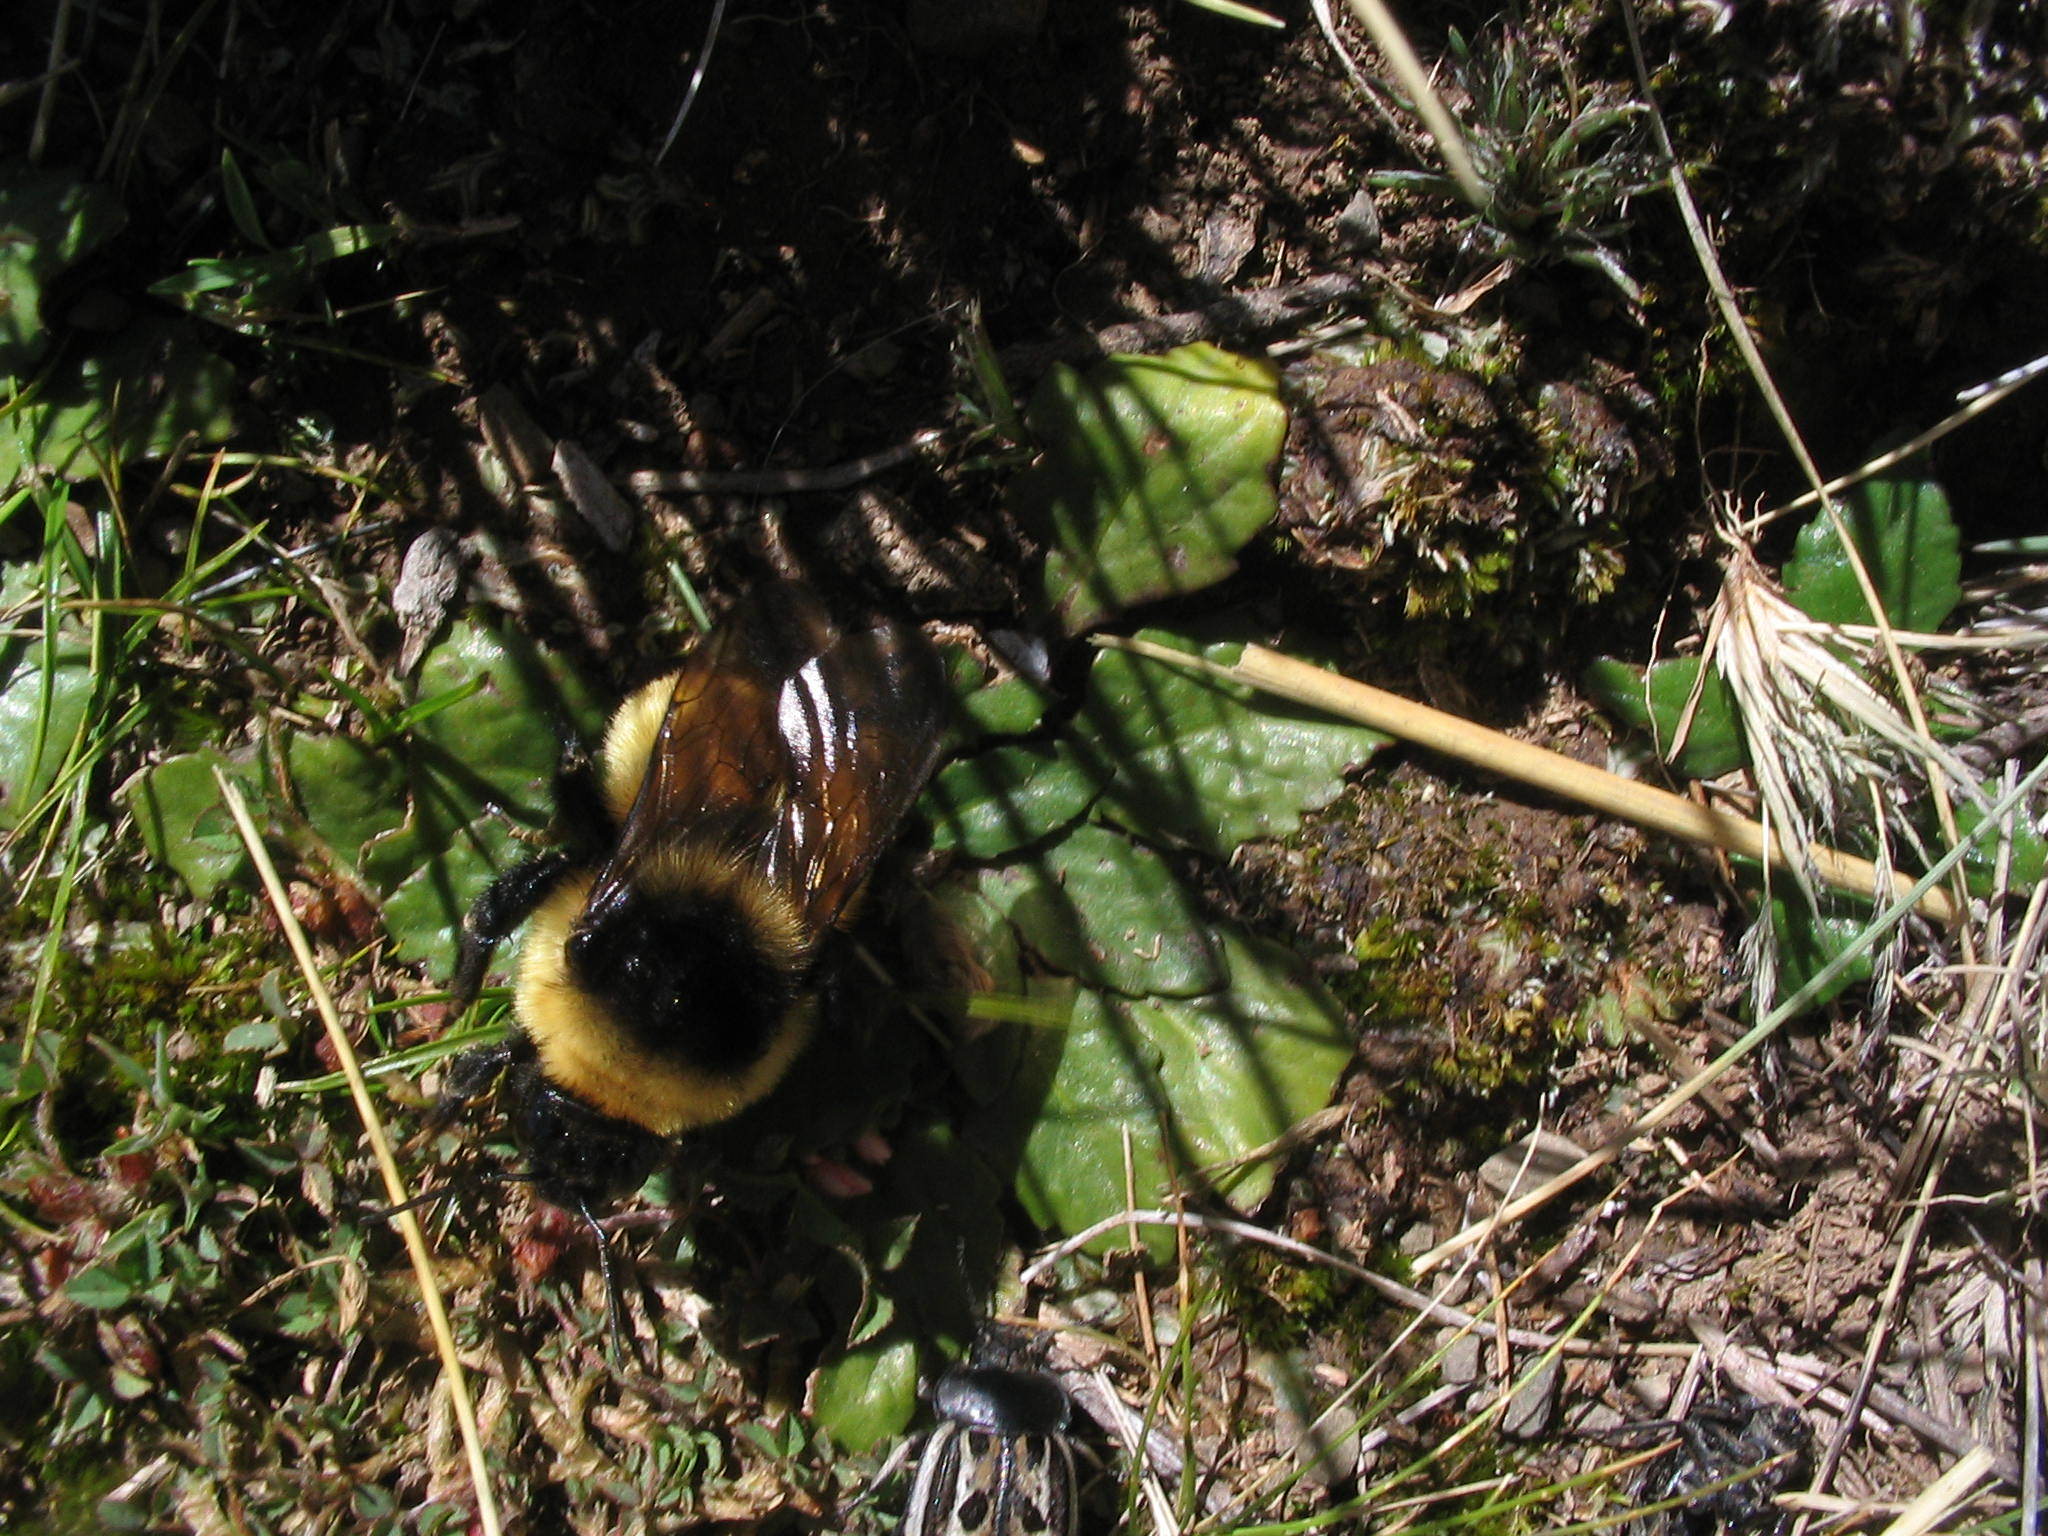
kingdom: Animalia
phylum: Arthropoda
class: Insecta
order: Hymenoptera
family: Apidae
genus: Bombus
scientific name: Bombus opifex
